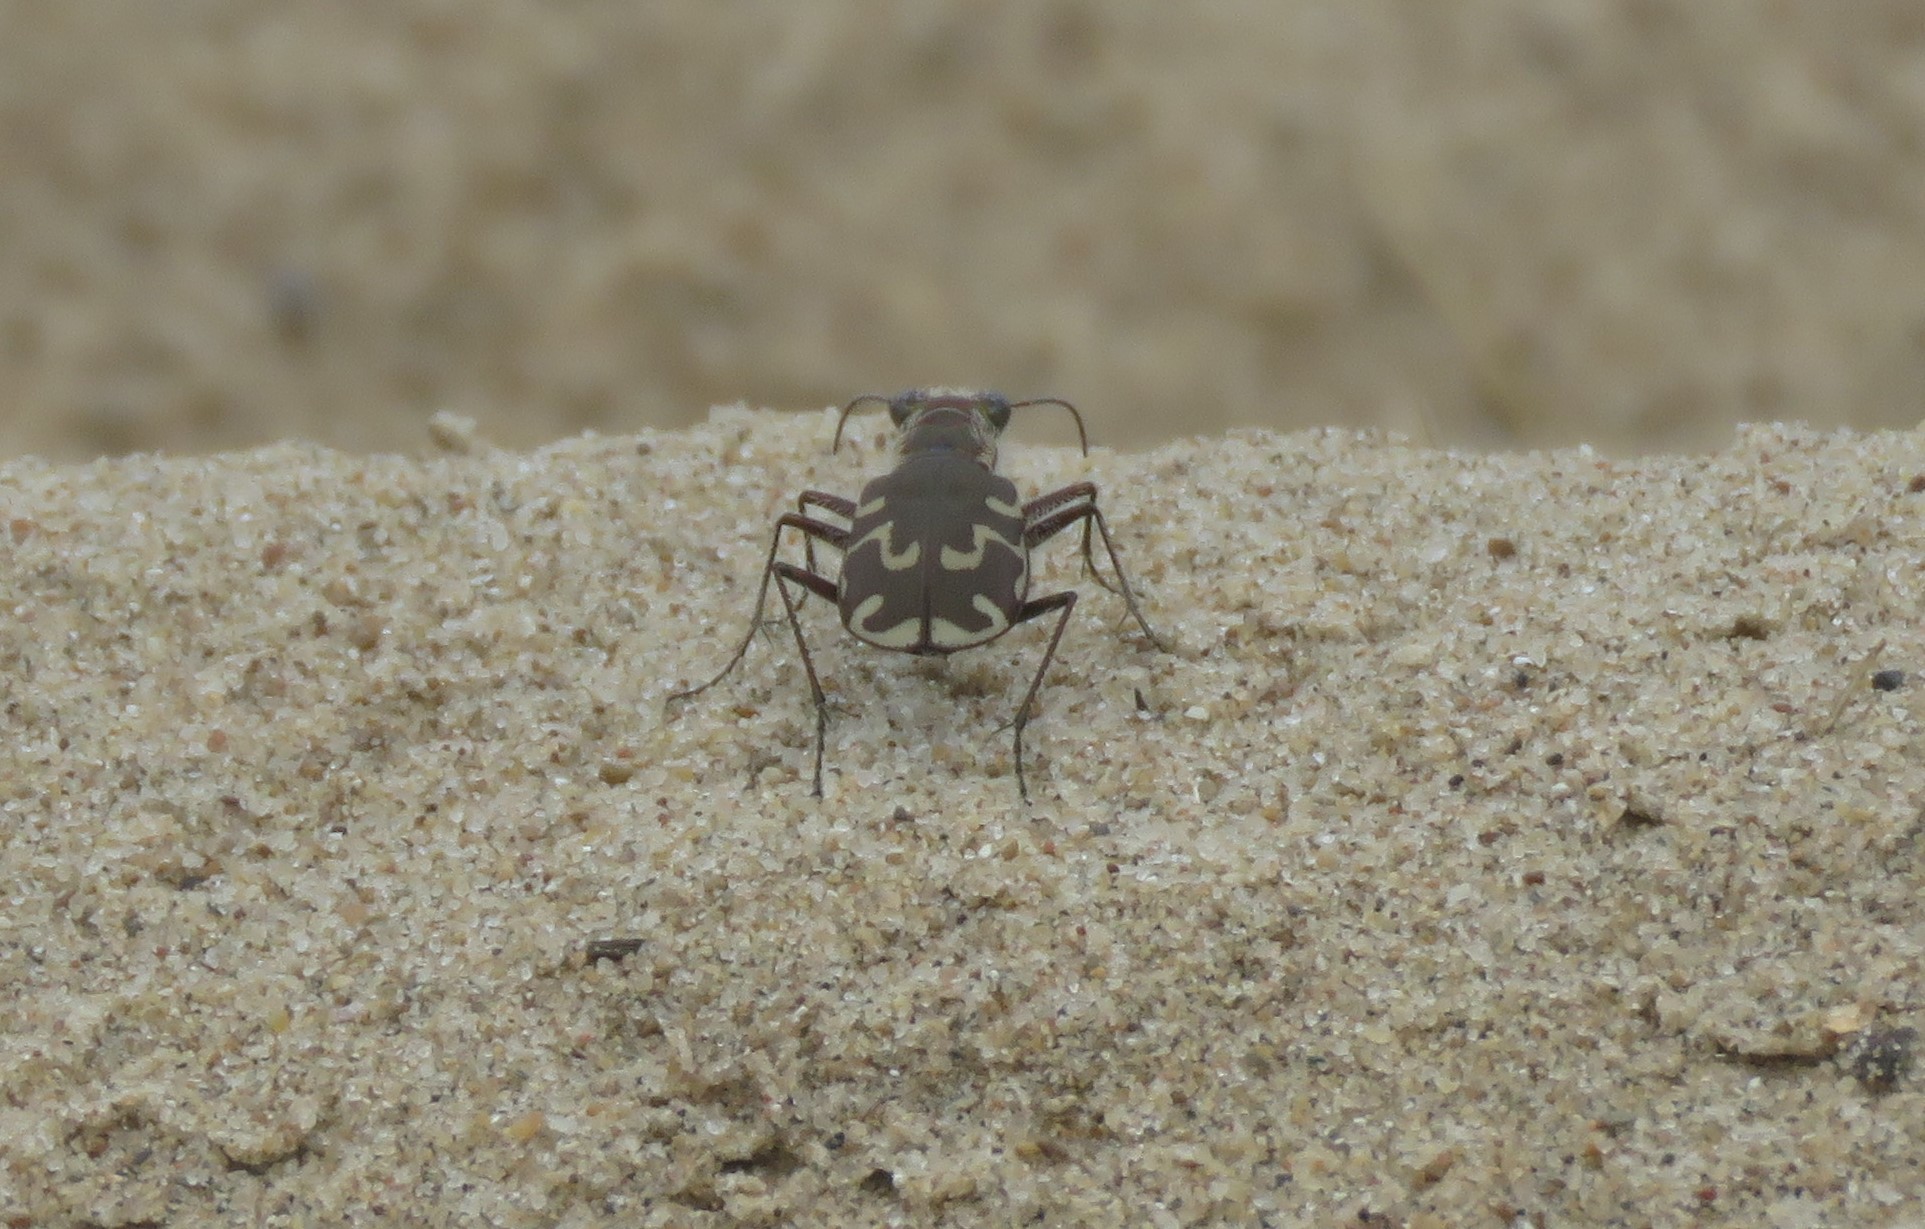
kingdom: Animalia
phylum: Arthropoda
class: Insecta
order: Coleoptera
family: Carabidae
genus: Cicindela
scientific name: Cicindela repanda
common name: Bronzed tiger beetle
